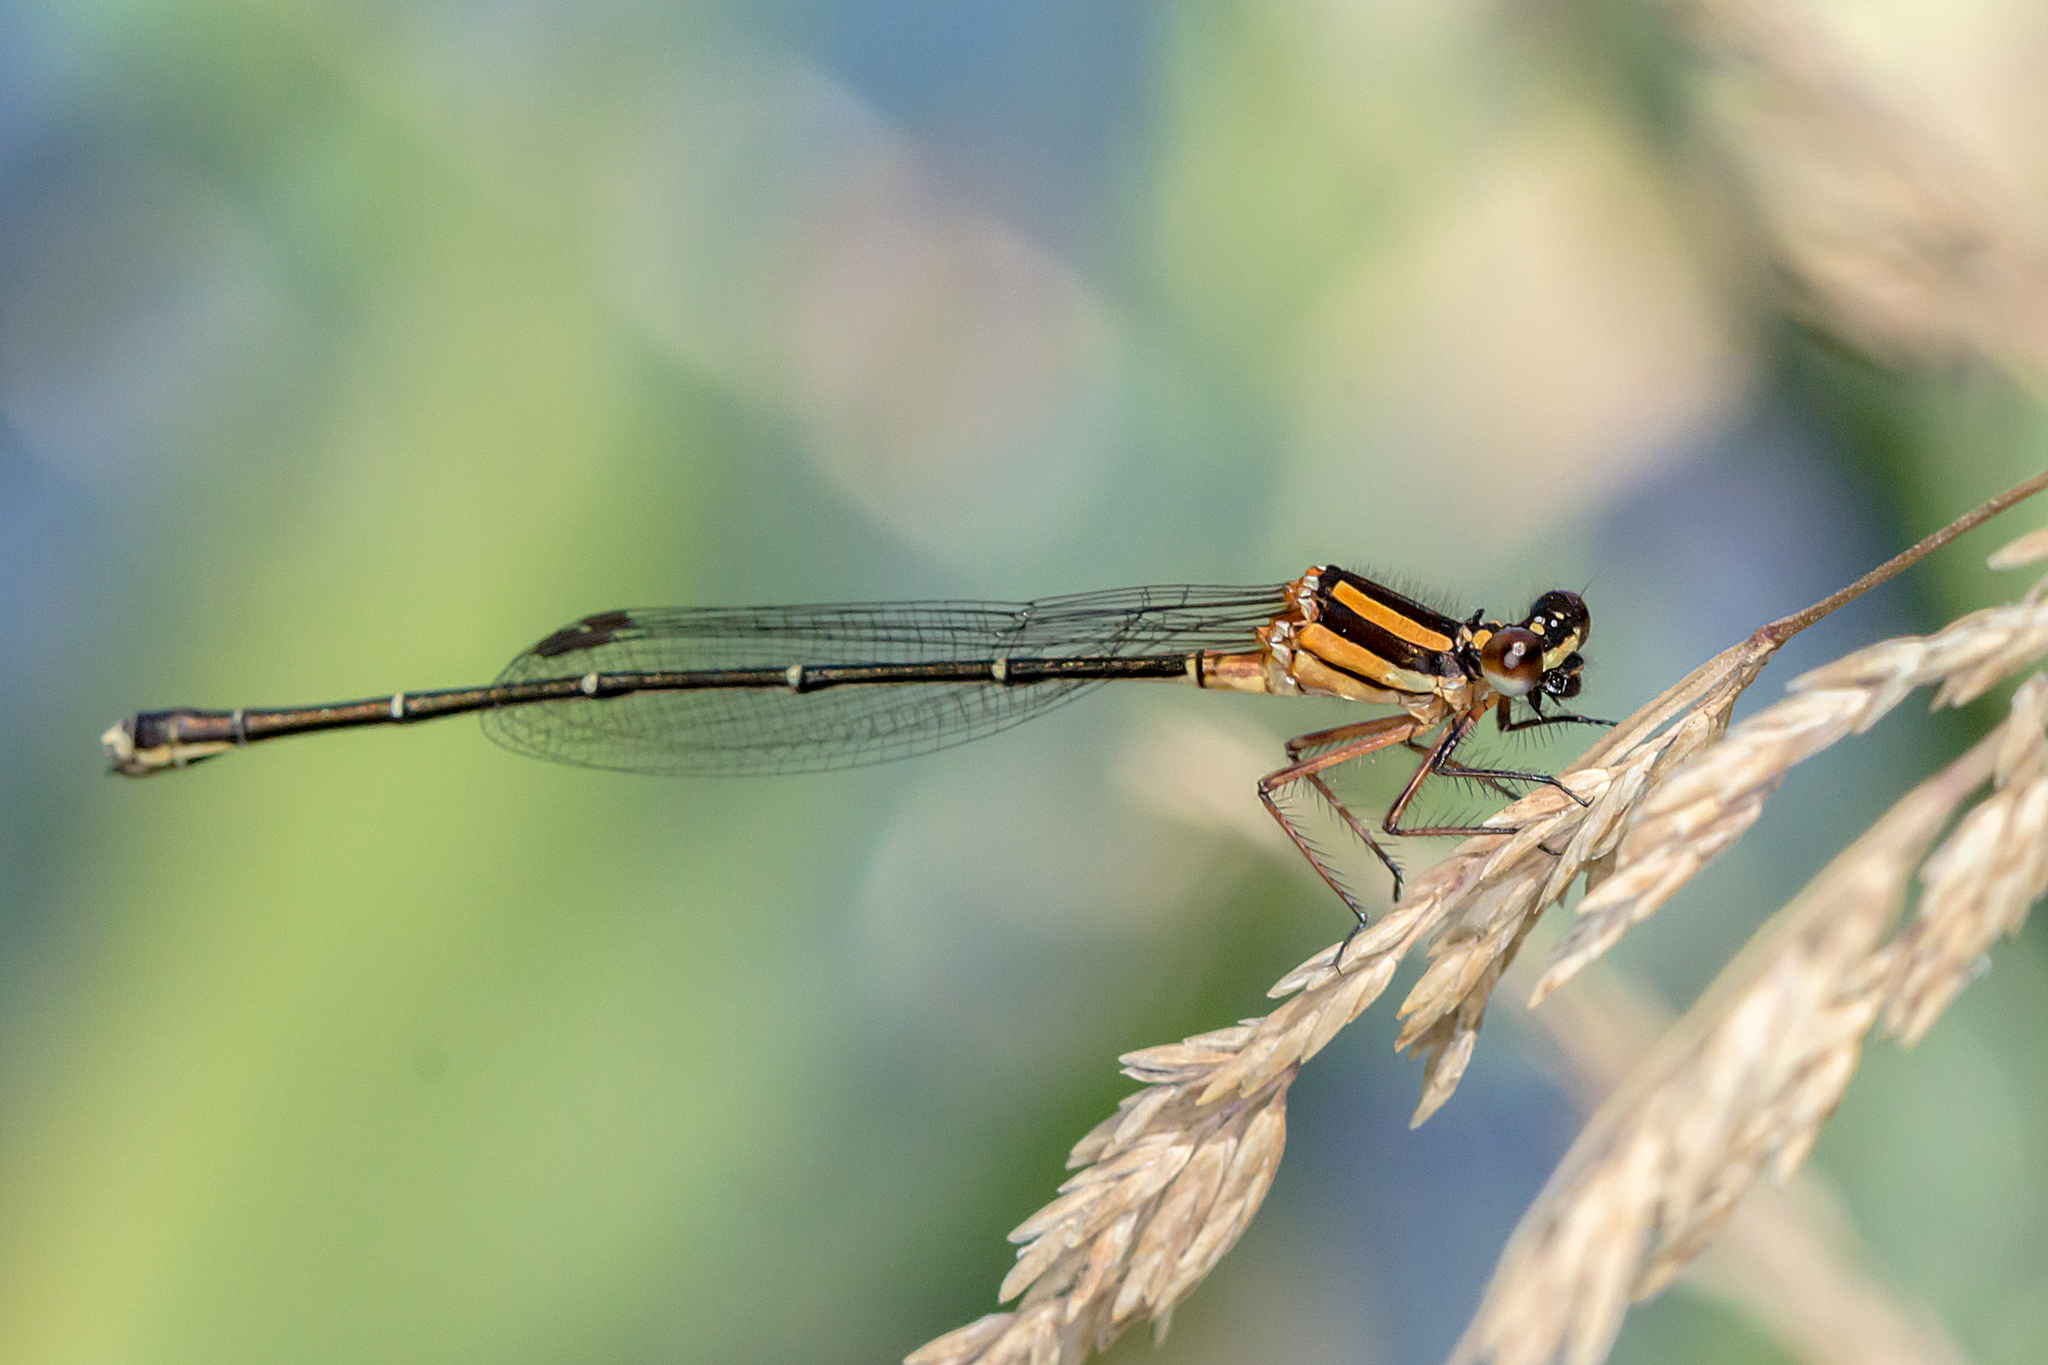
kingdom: Animalia
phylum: Arthropoda
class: Insecta
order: Odonata
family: Platycnemididae
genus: Nososticta
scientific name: Nososticta solida
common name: Orange threadtail
